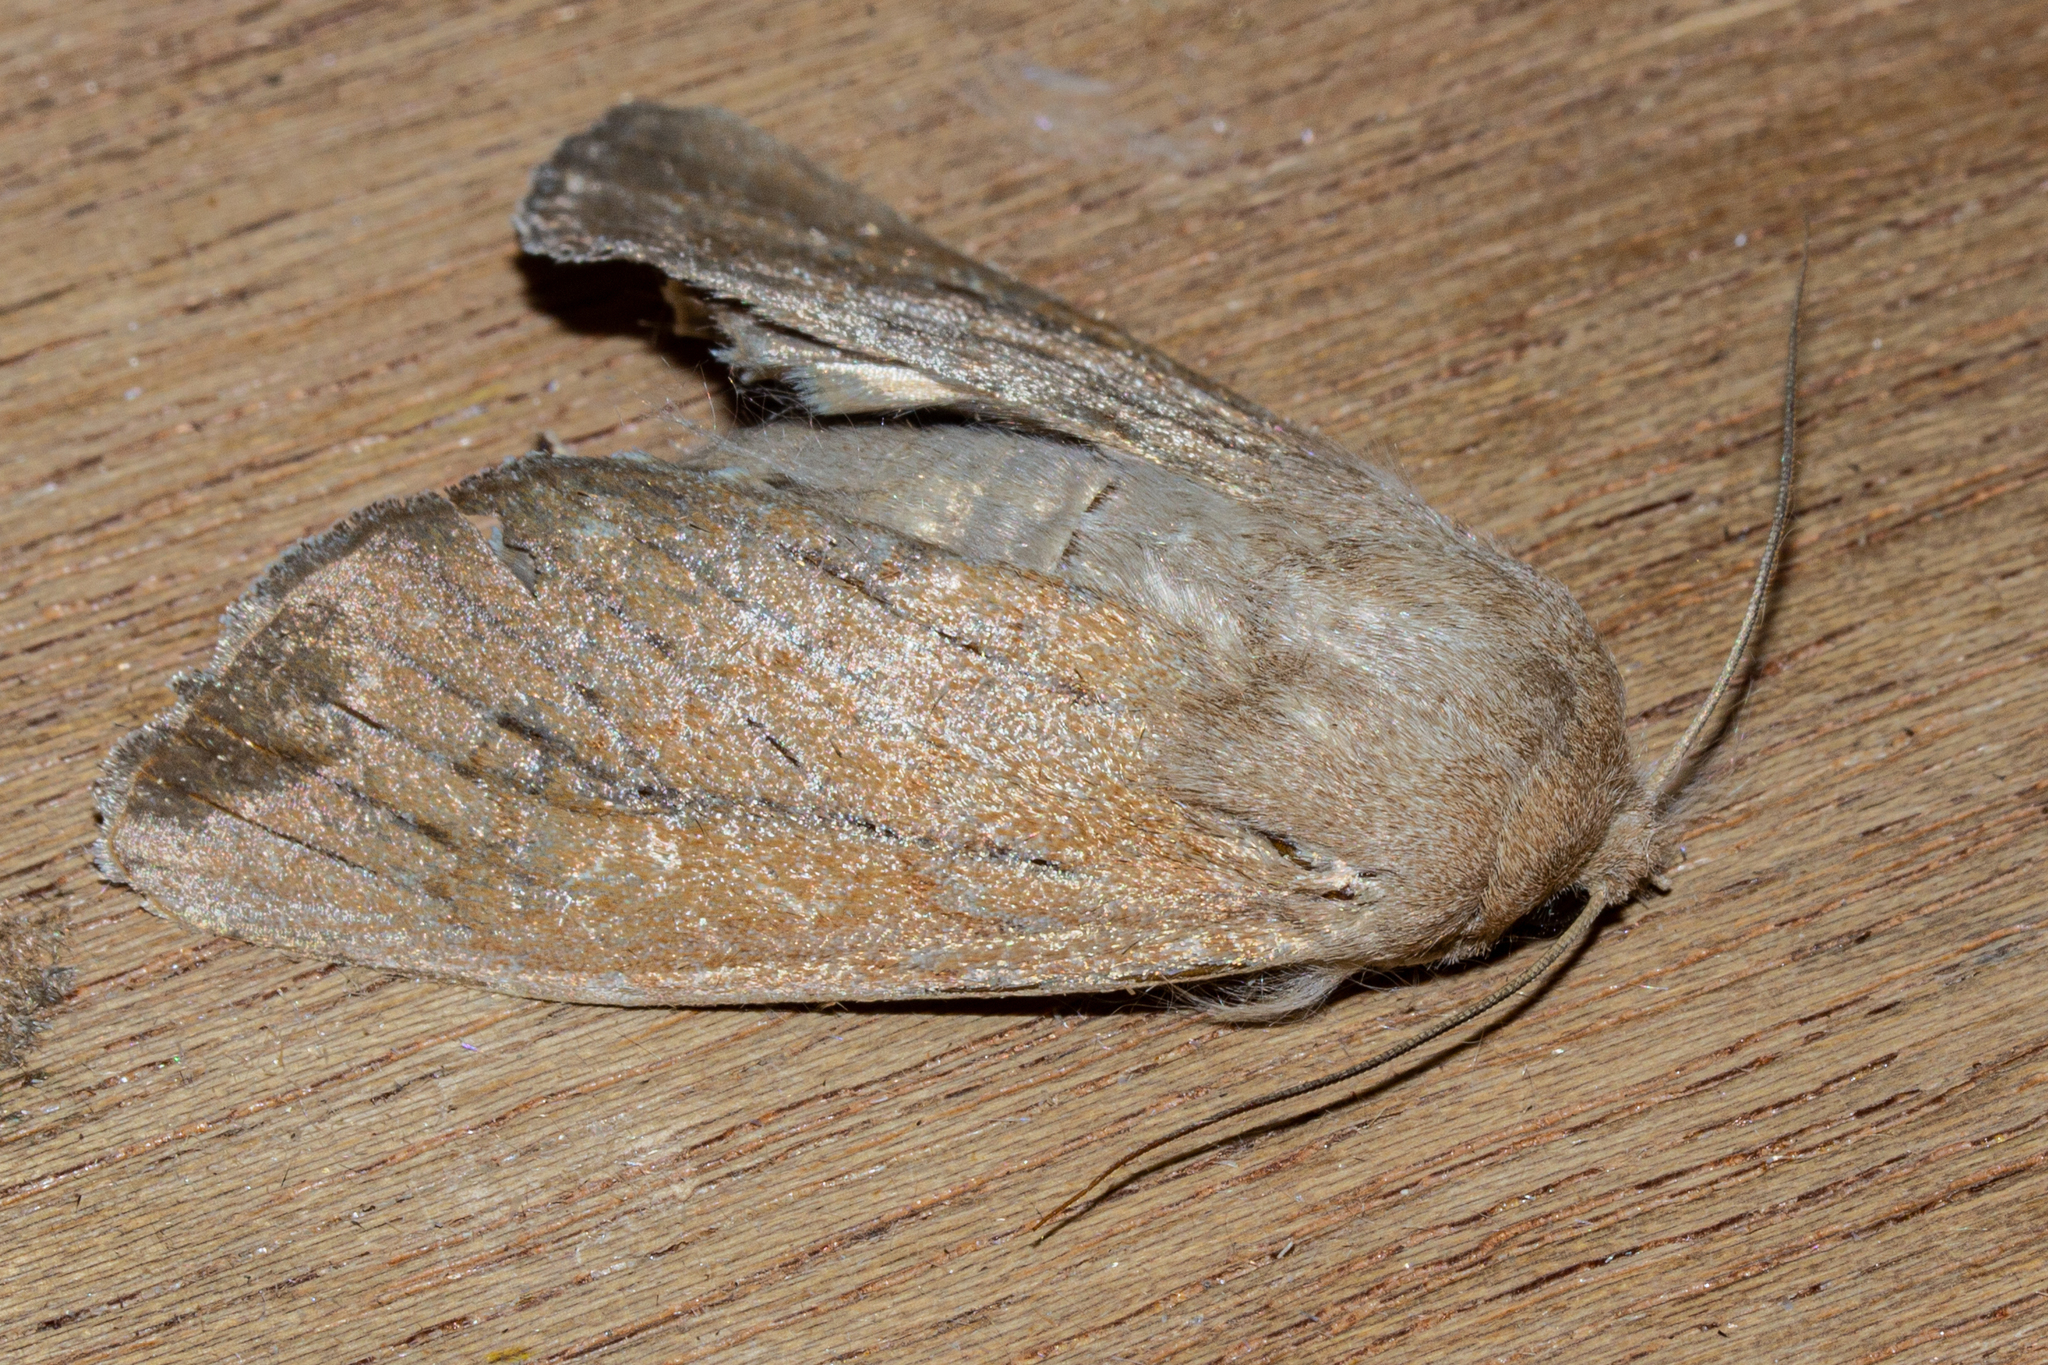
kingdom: Animalia
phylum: Arthropoda
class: Insecta
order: Lepidoptera
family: Noctuidae
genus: Ichneutica
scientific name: Ichneutica nullifera
